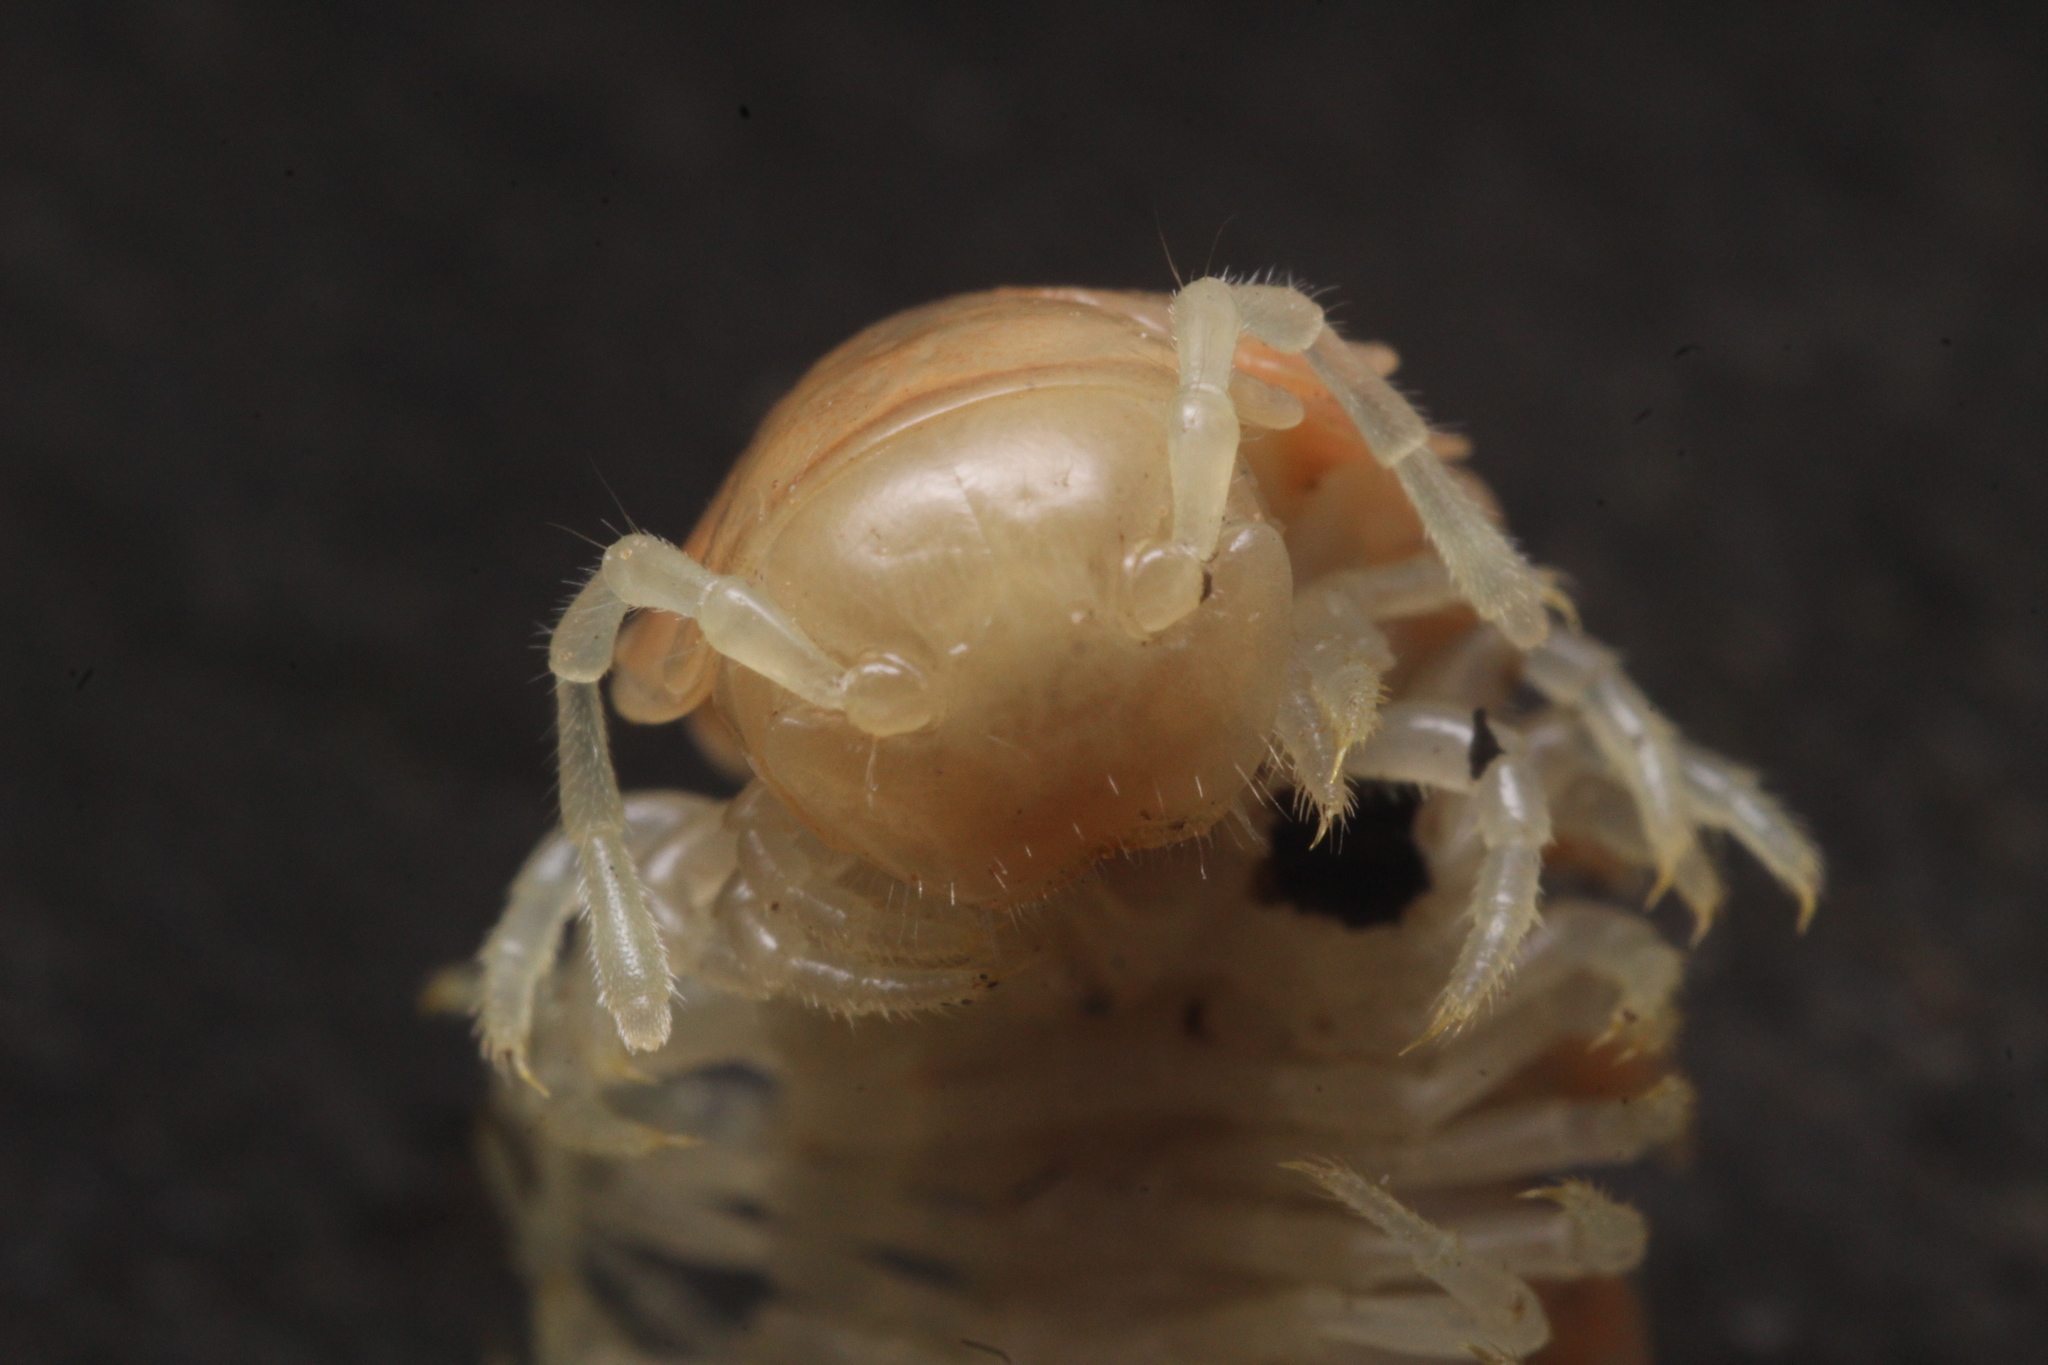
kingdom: Animalia
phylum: Arthropoda
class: Diplopoda
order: Polydesmida
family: Xystodesmidae
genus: Xystocheir
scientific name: Xystocheir dissecta
